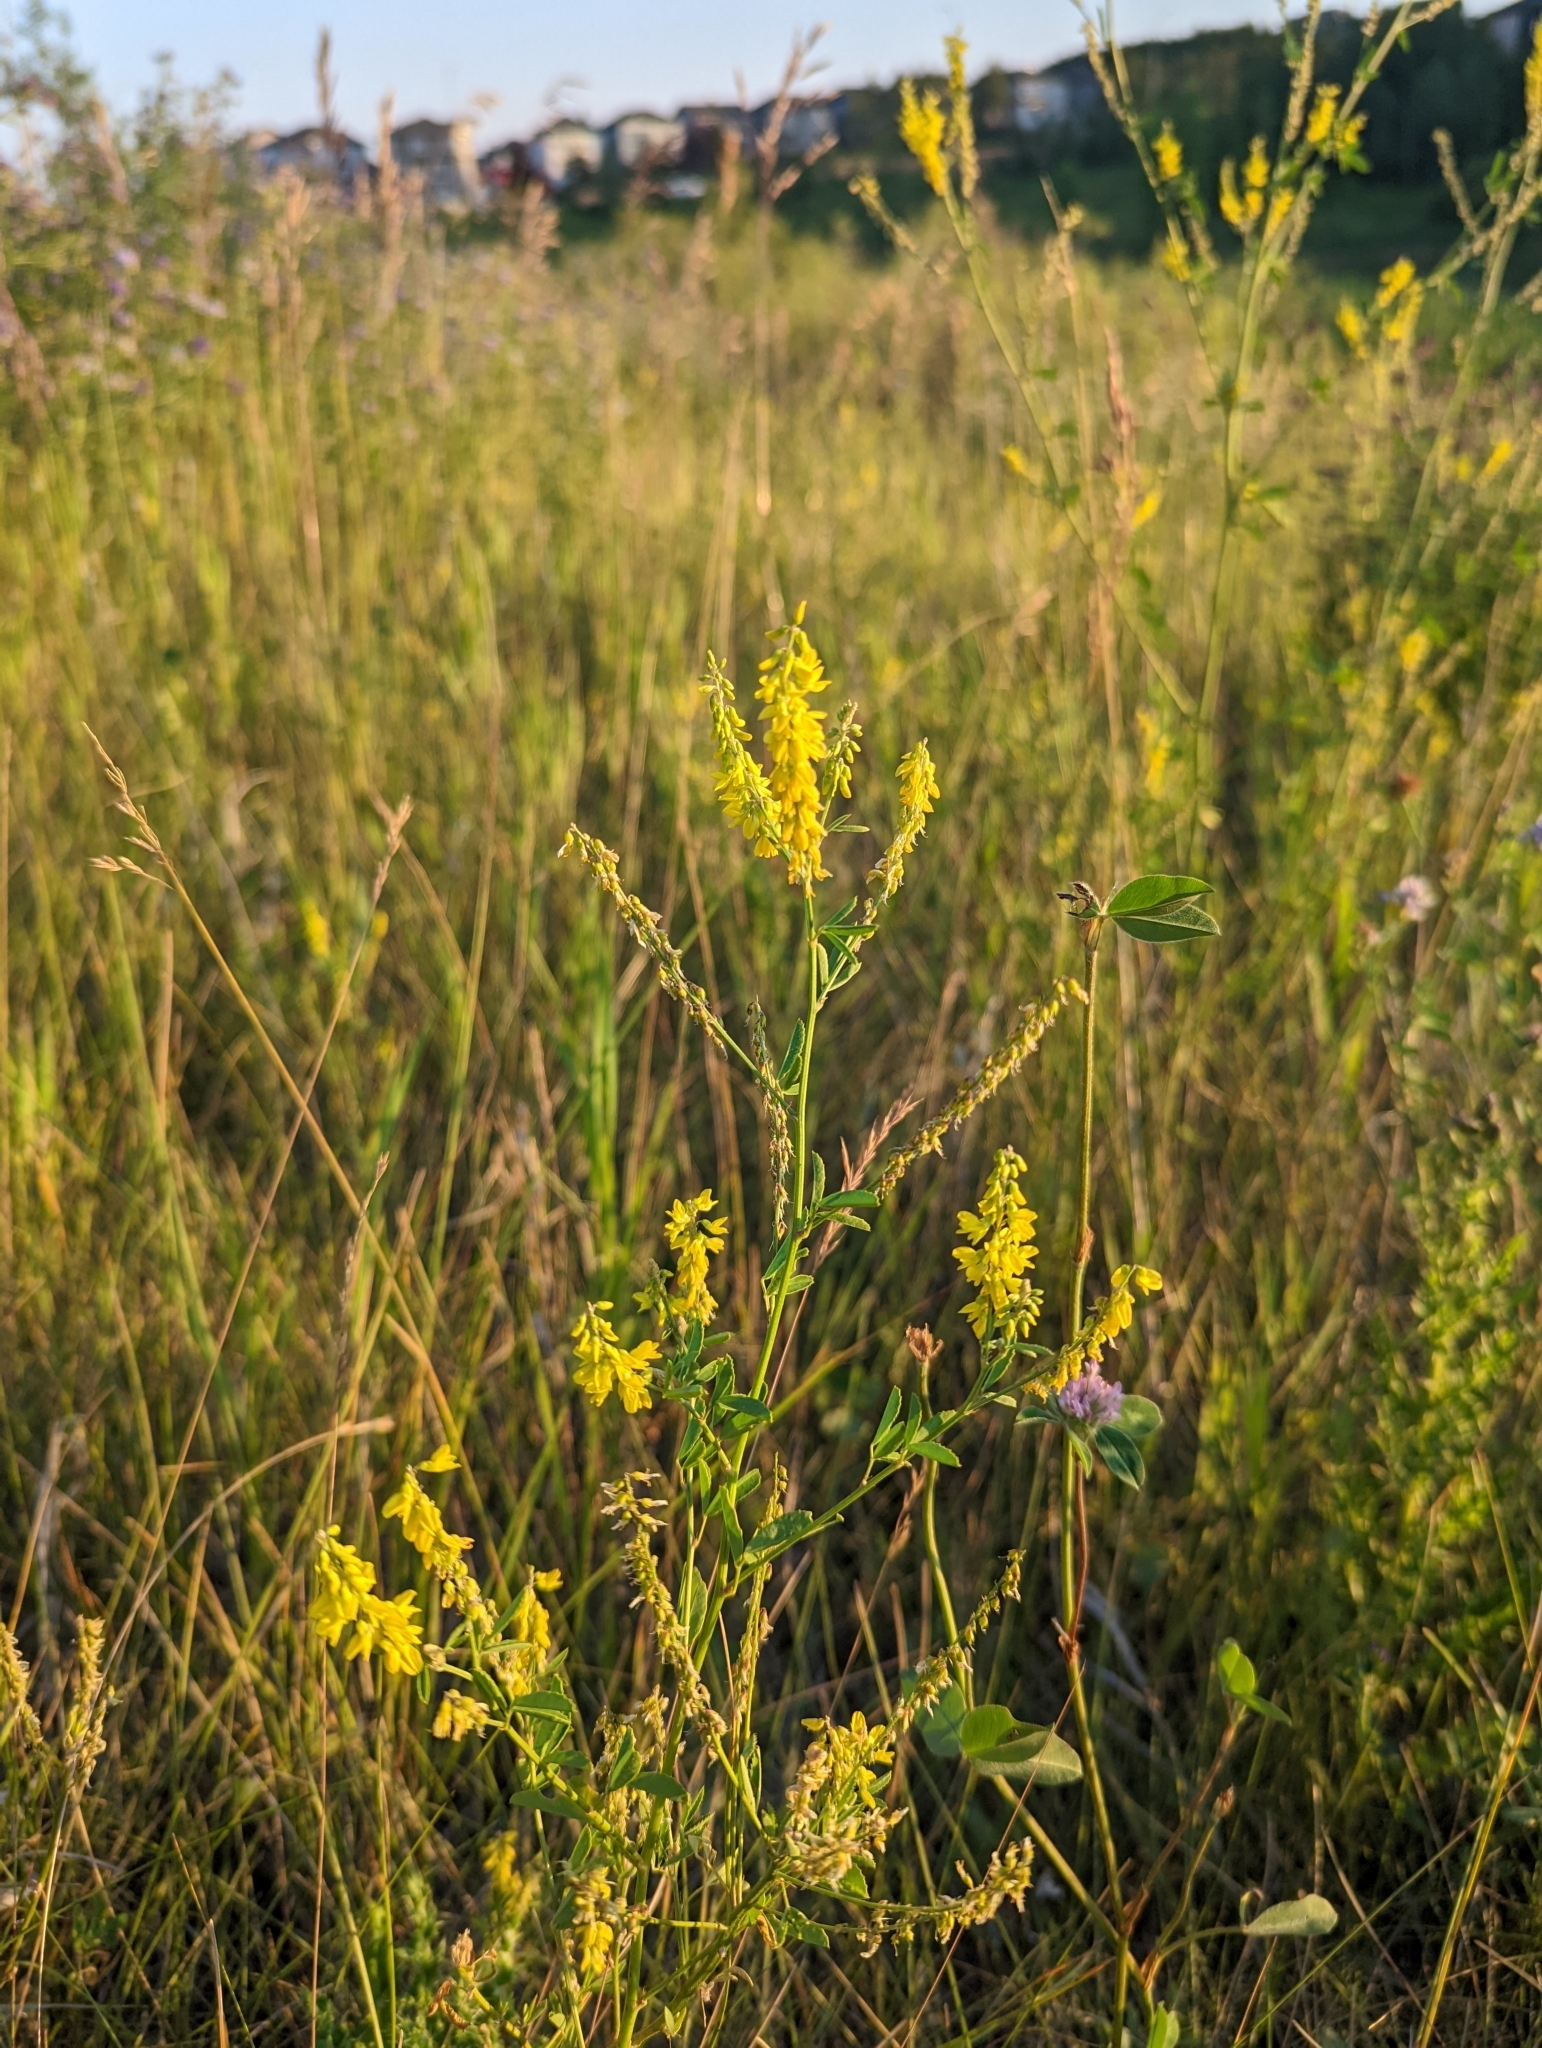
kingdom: Plantae
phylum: Tracheophyta
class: Magnoliopsida
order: Fabales
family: Fabaceae
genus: Melilotus
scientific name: Melilotus officinalis
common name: Sweetclover
